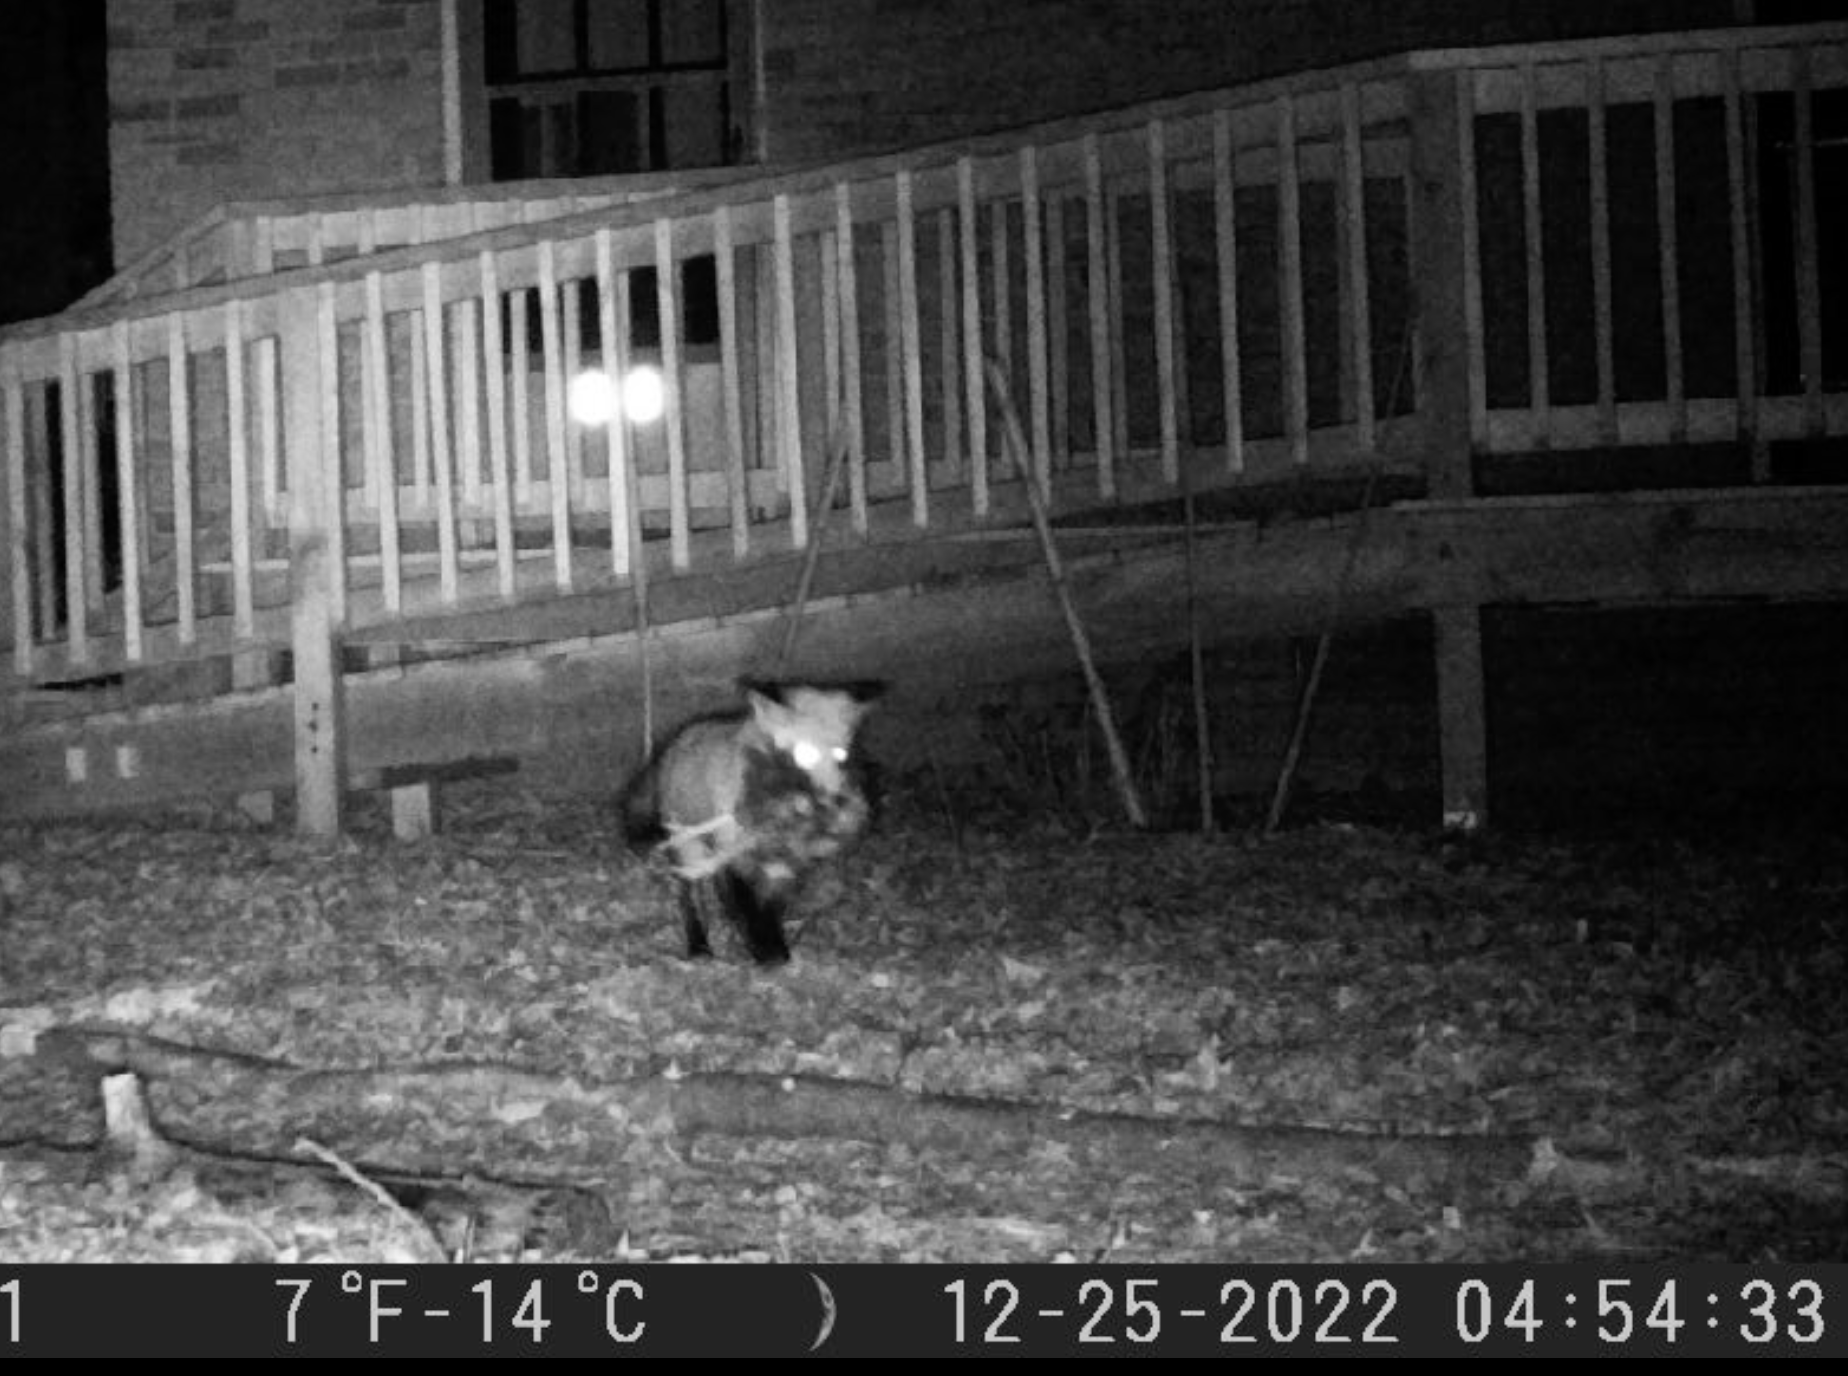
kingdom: Animalia
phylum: Chordata
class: Mammalia
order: Carnivora
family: Canidae
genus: Vulpes
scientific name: Vulpes vulpes
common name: Red fox
